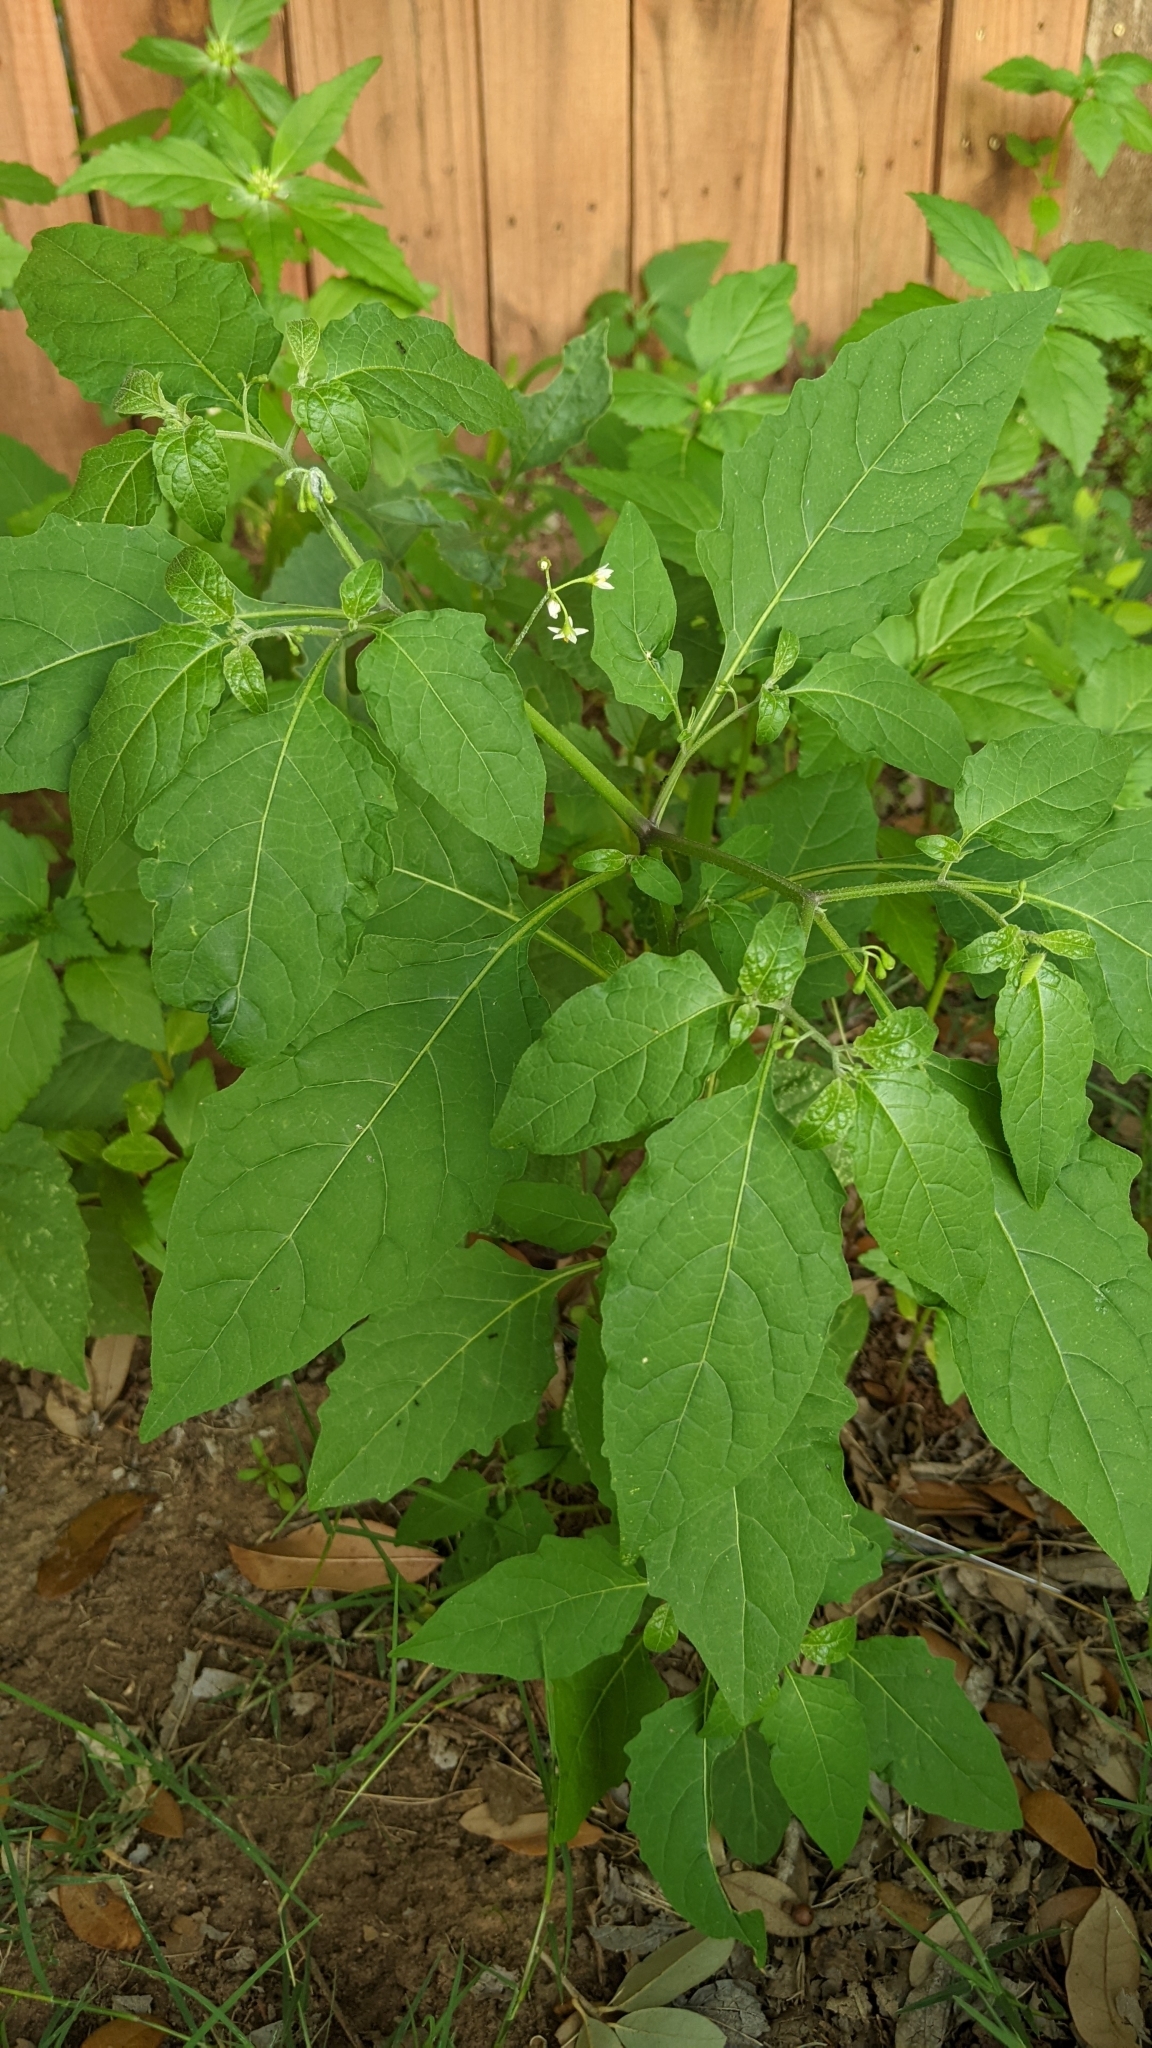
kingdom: Plantae
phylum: Tracheophyta
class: Magnoliopsida
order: Solanales
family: Solanaceae
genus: Solanum
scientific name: Solanum emulans
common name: Eastern black nightshade
